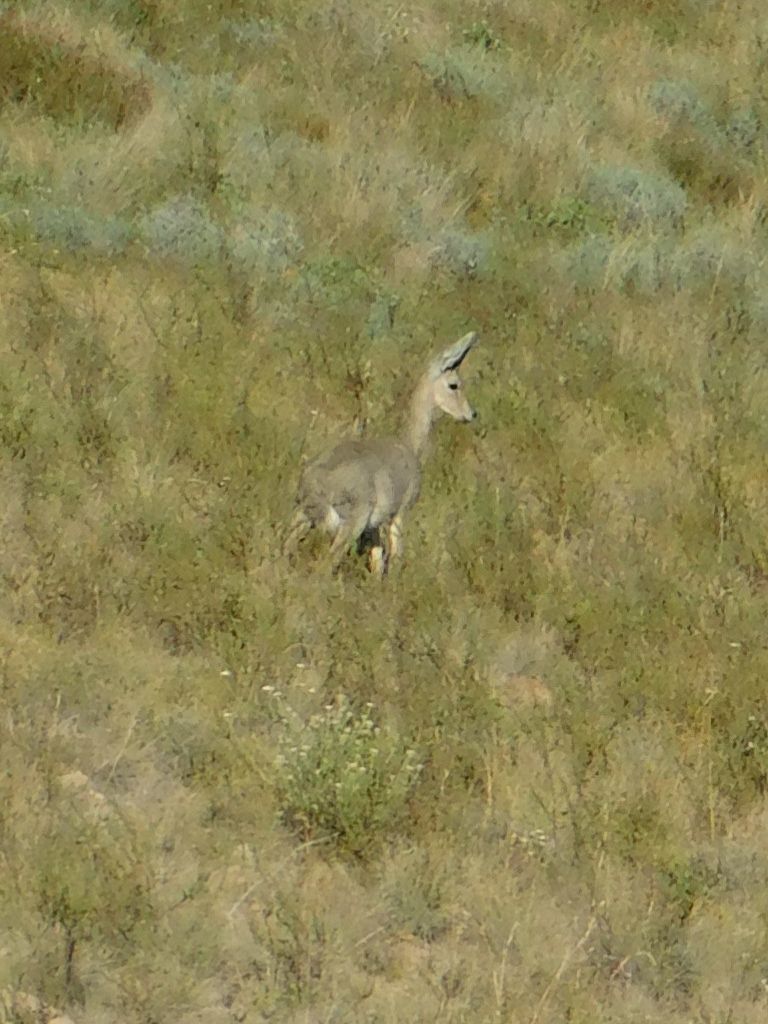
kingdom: Animalia
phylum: Chordata
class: Mammalia
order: Artiodactyla
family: Bovidae
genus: Pelea
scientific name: Pelea capreolus
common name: Common rhebok
